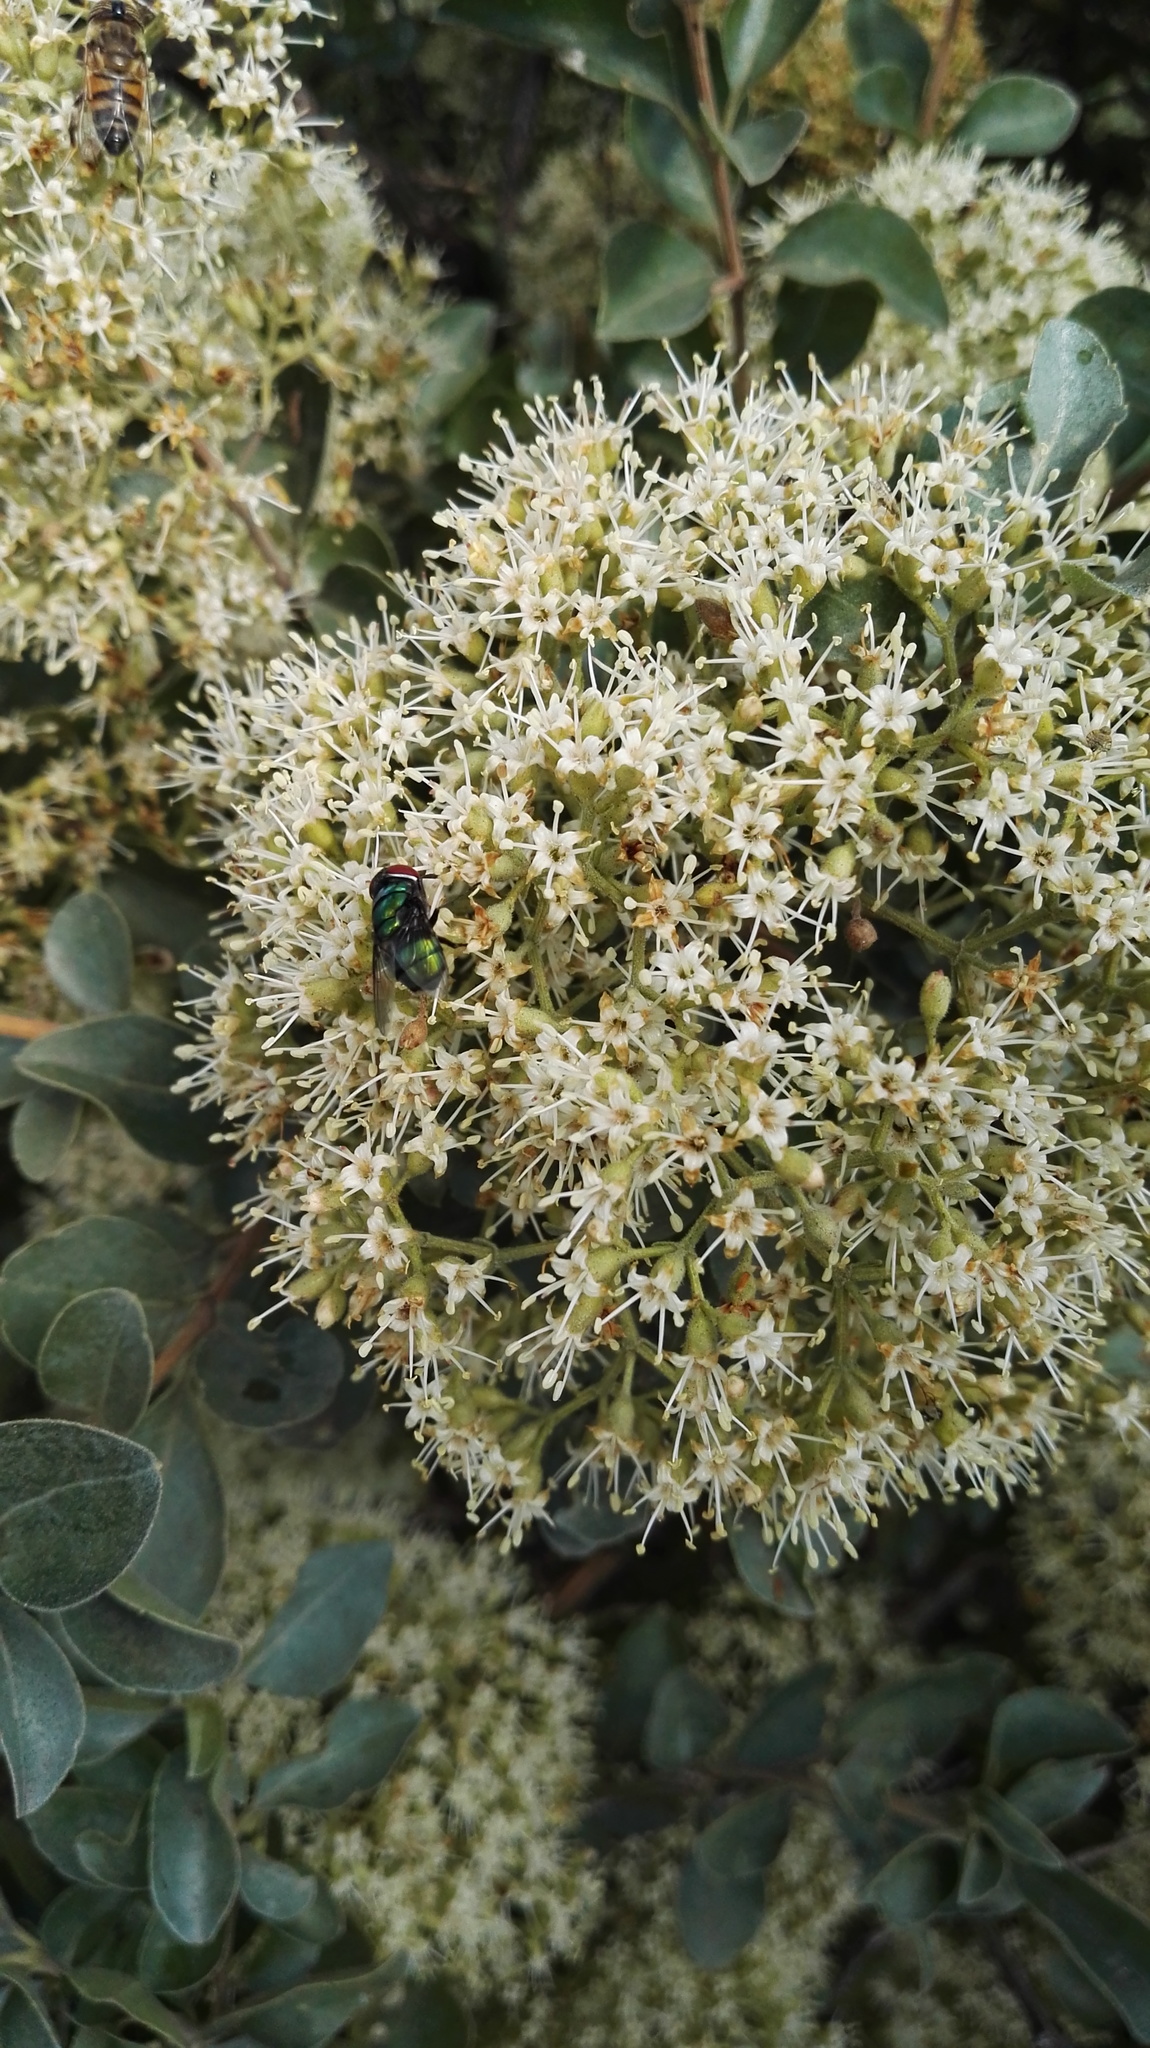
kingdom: Plantae
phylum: Tracheophyta
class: Magnoliopsida
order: Lamiales
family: Stilbaceae
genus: Nuxia
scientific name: Nuxia congesta
